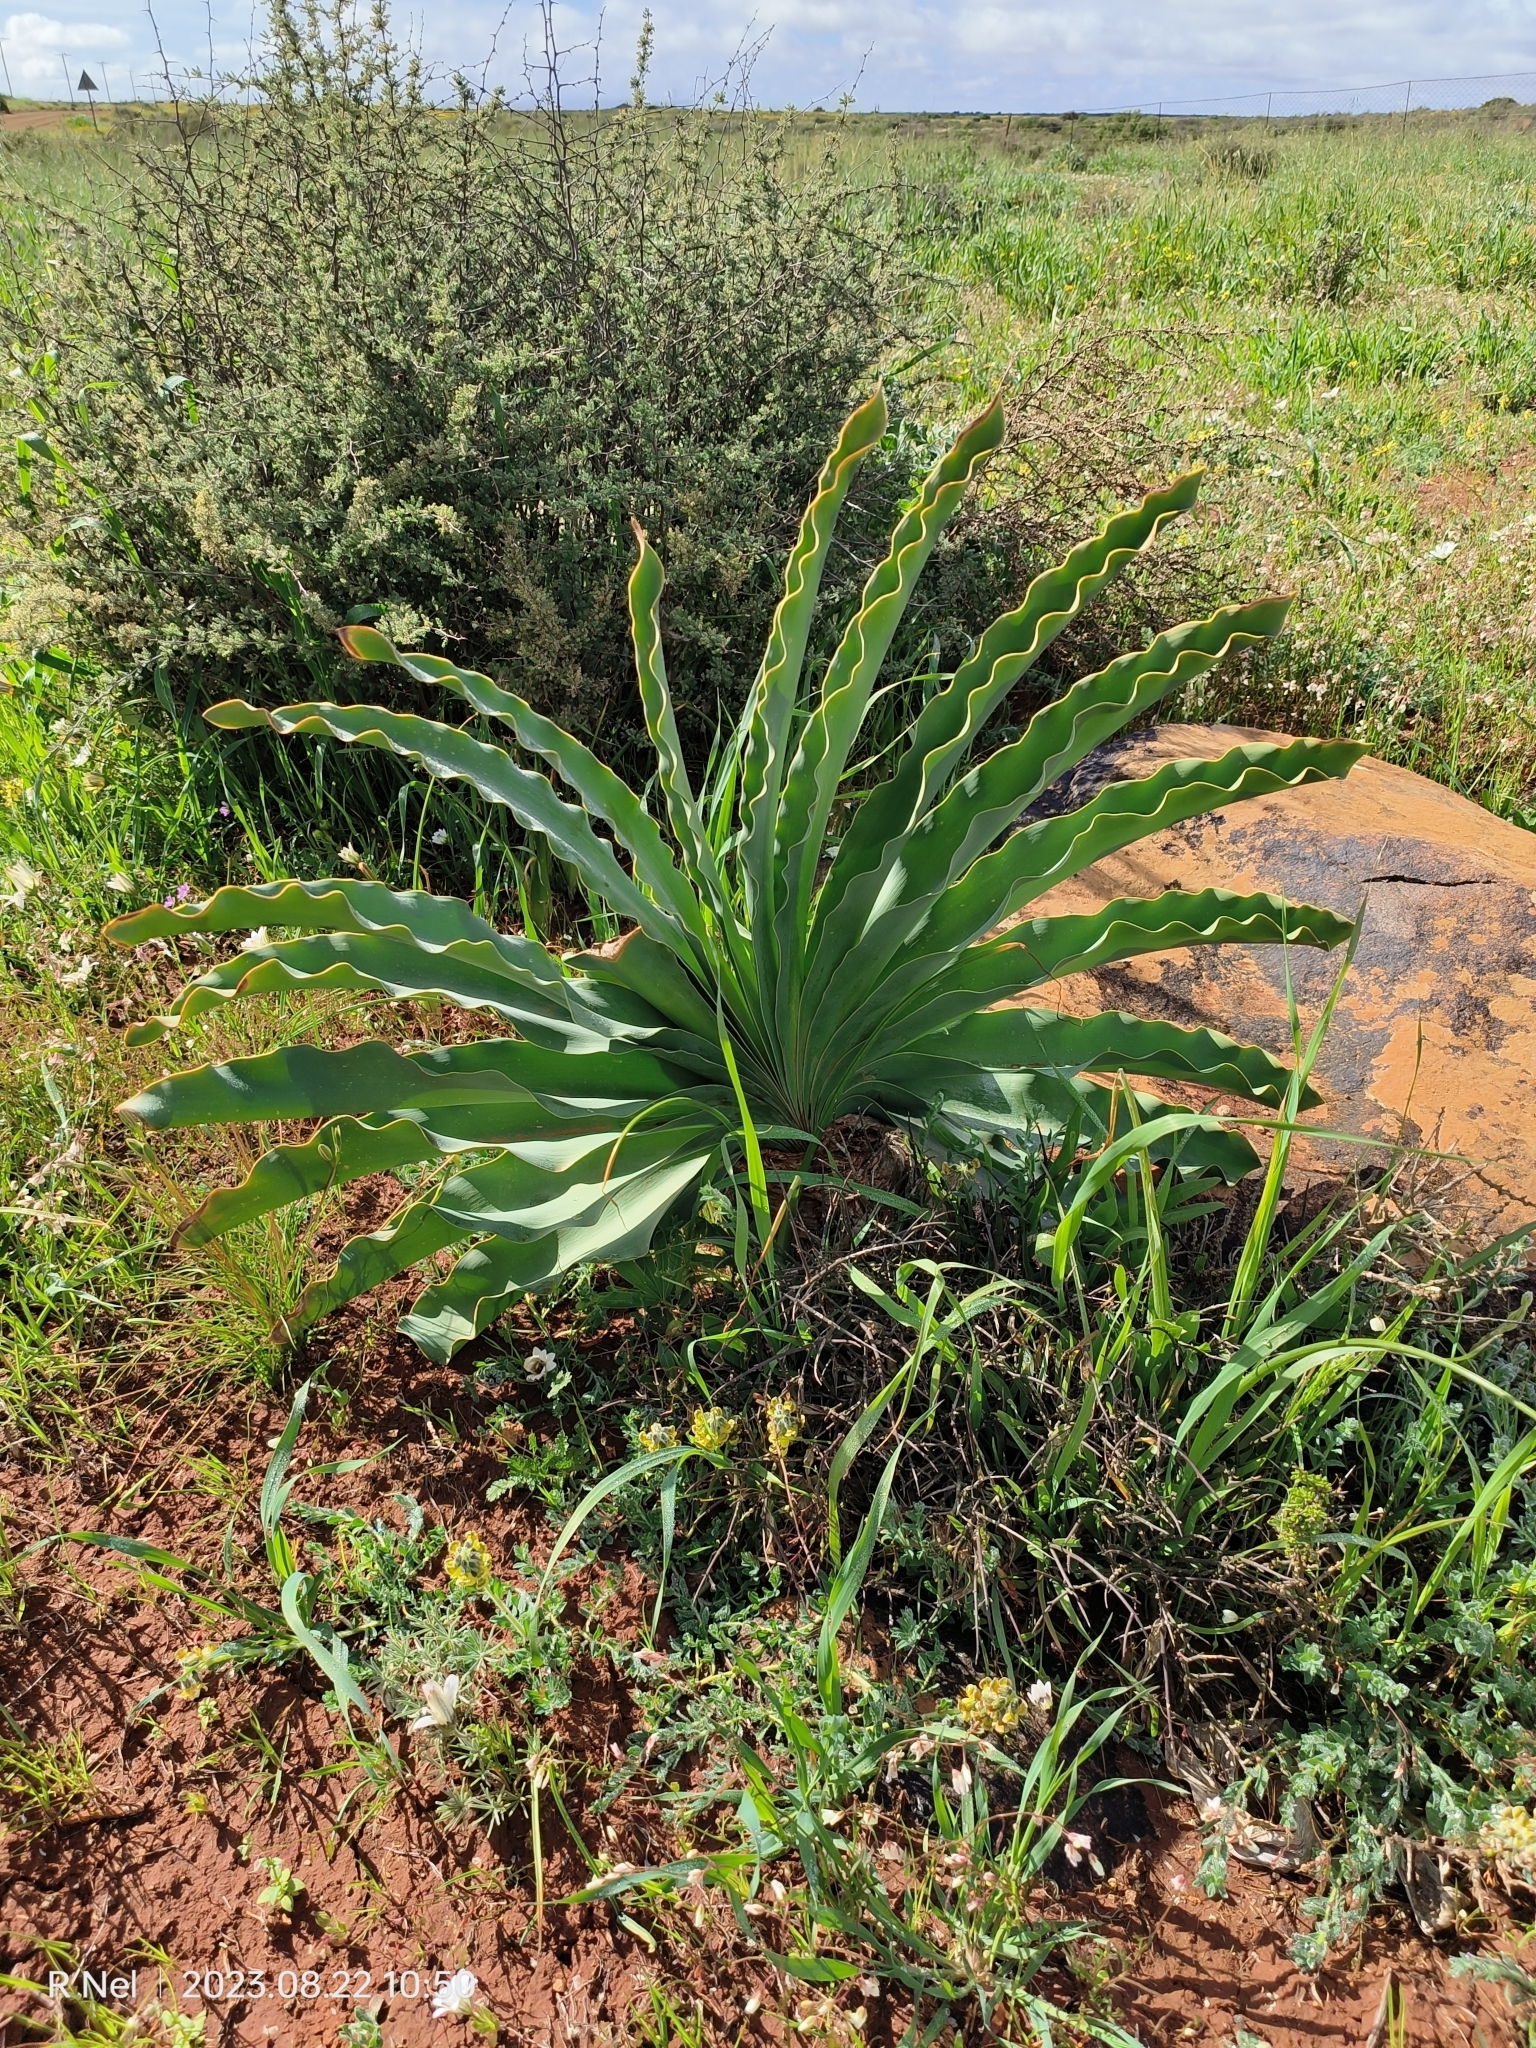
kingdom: Plantae
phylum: Tracheophyta
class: Liliopsida
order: Asparagales
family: Amaryllidaceae
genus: Boophone
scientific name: Boophone disticha
